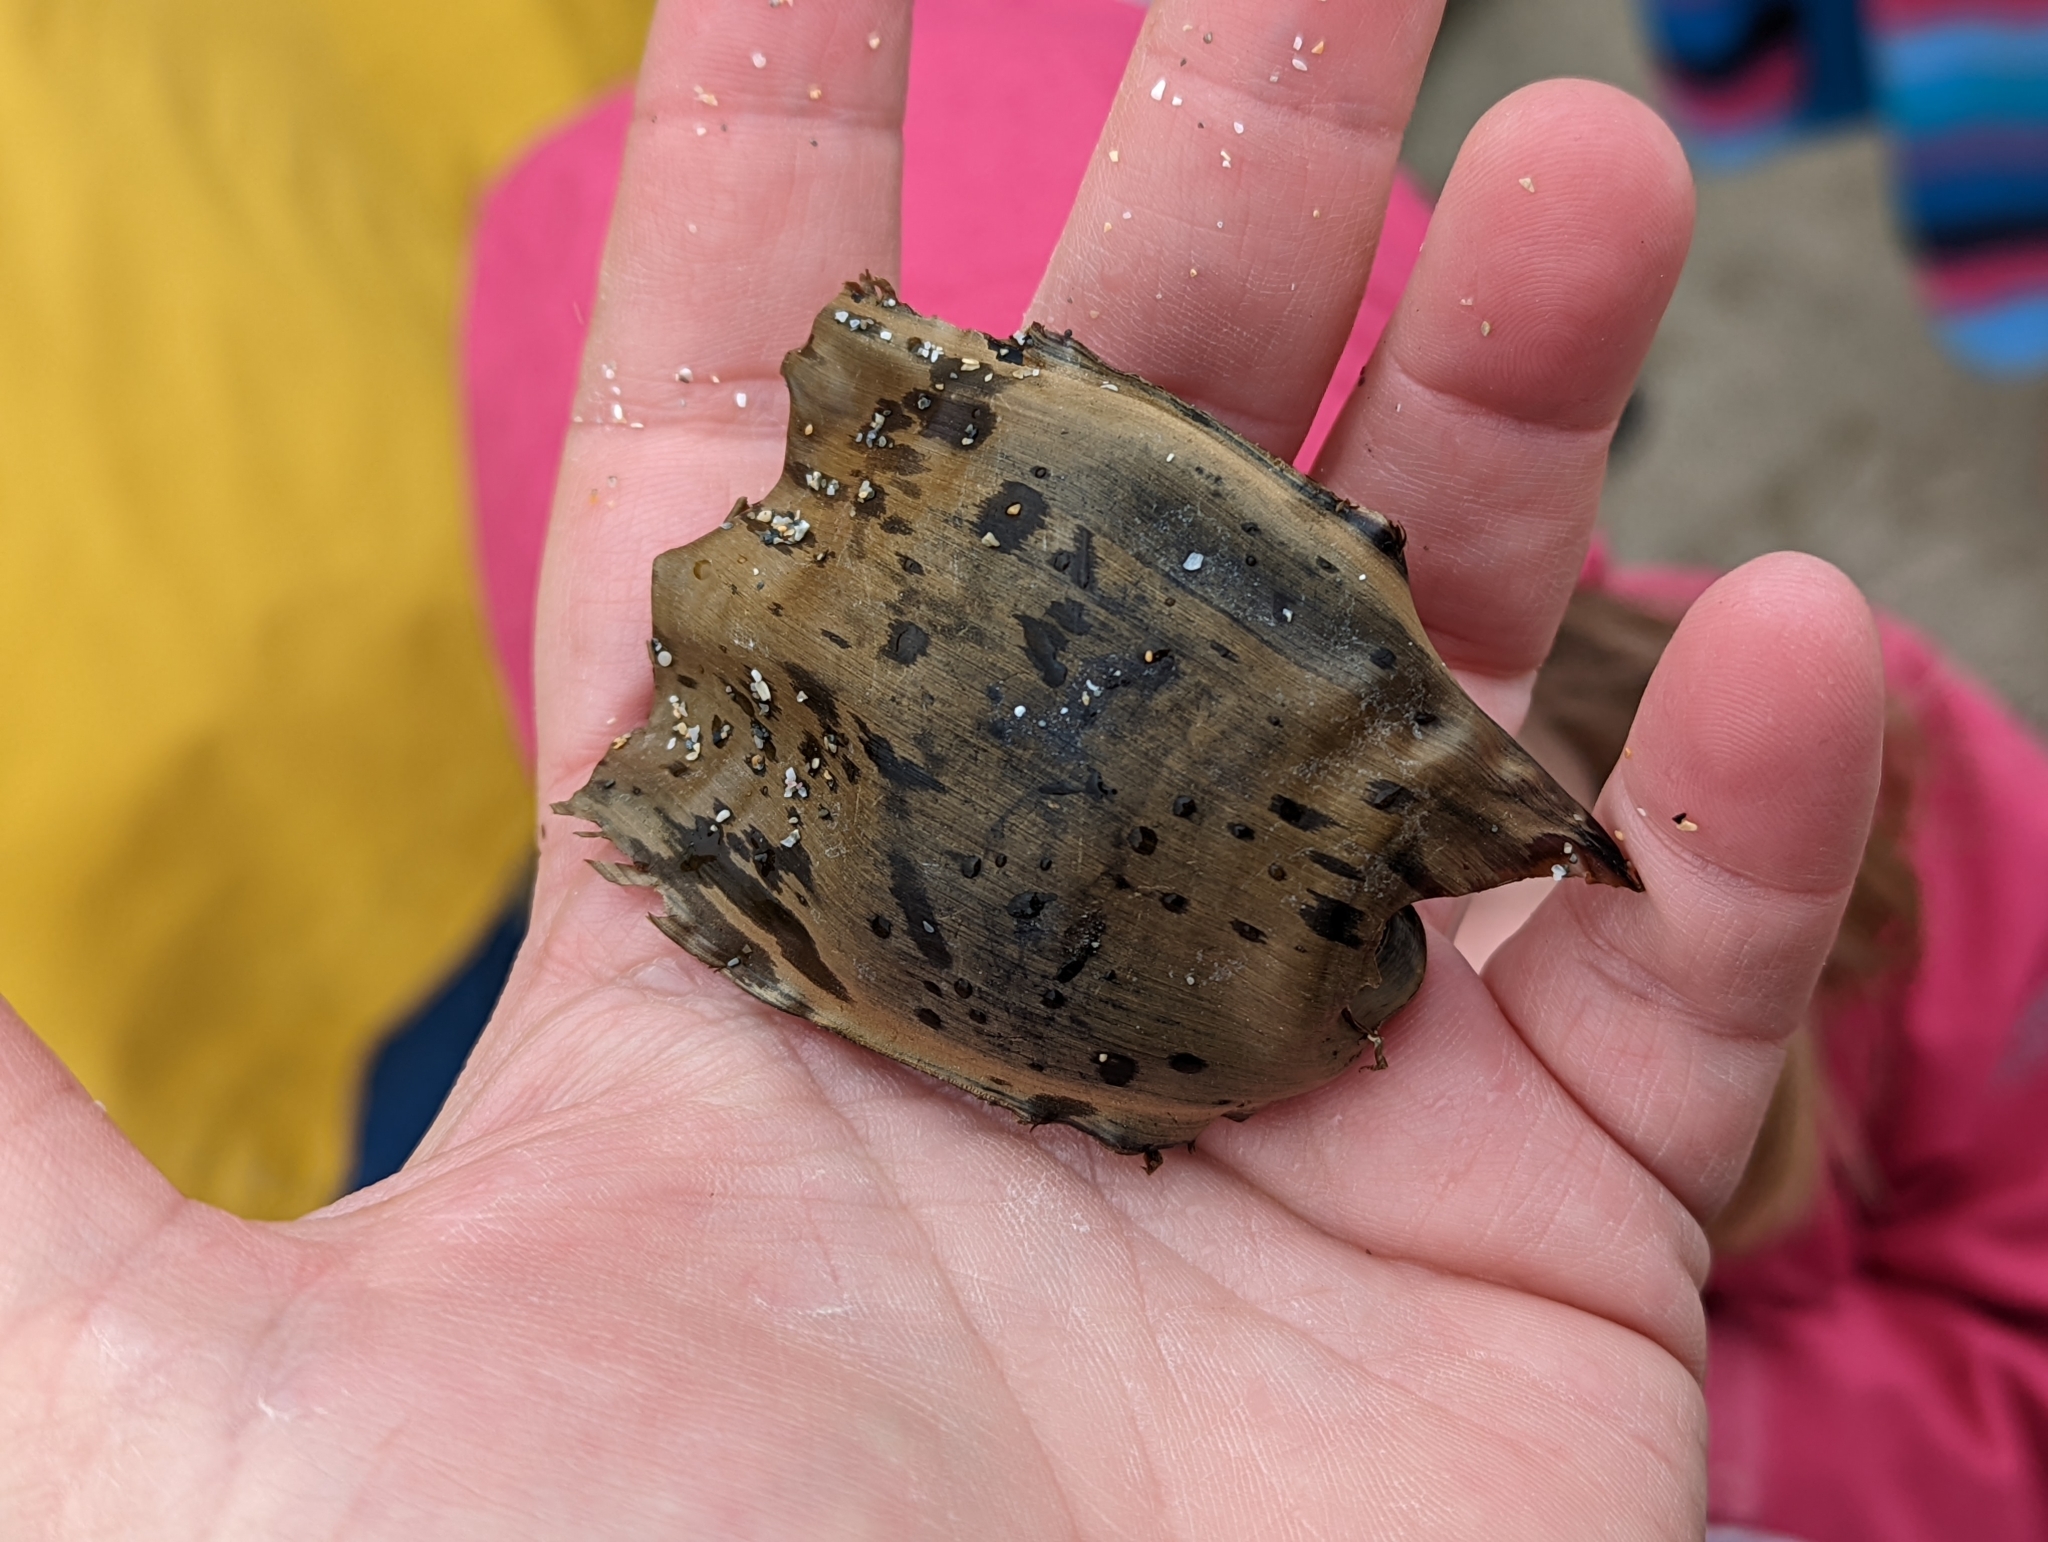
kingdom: Animalia
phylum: Chordata
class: Elasmobranchii
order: Rajiformes
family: Rajidae
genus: Raja
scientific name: Raja clavata
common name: Thornback ray
